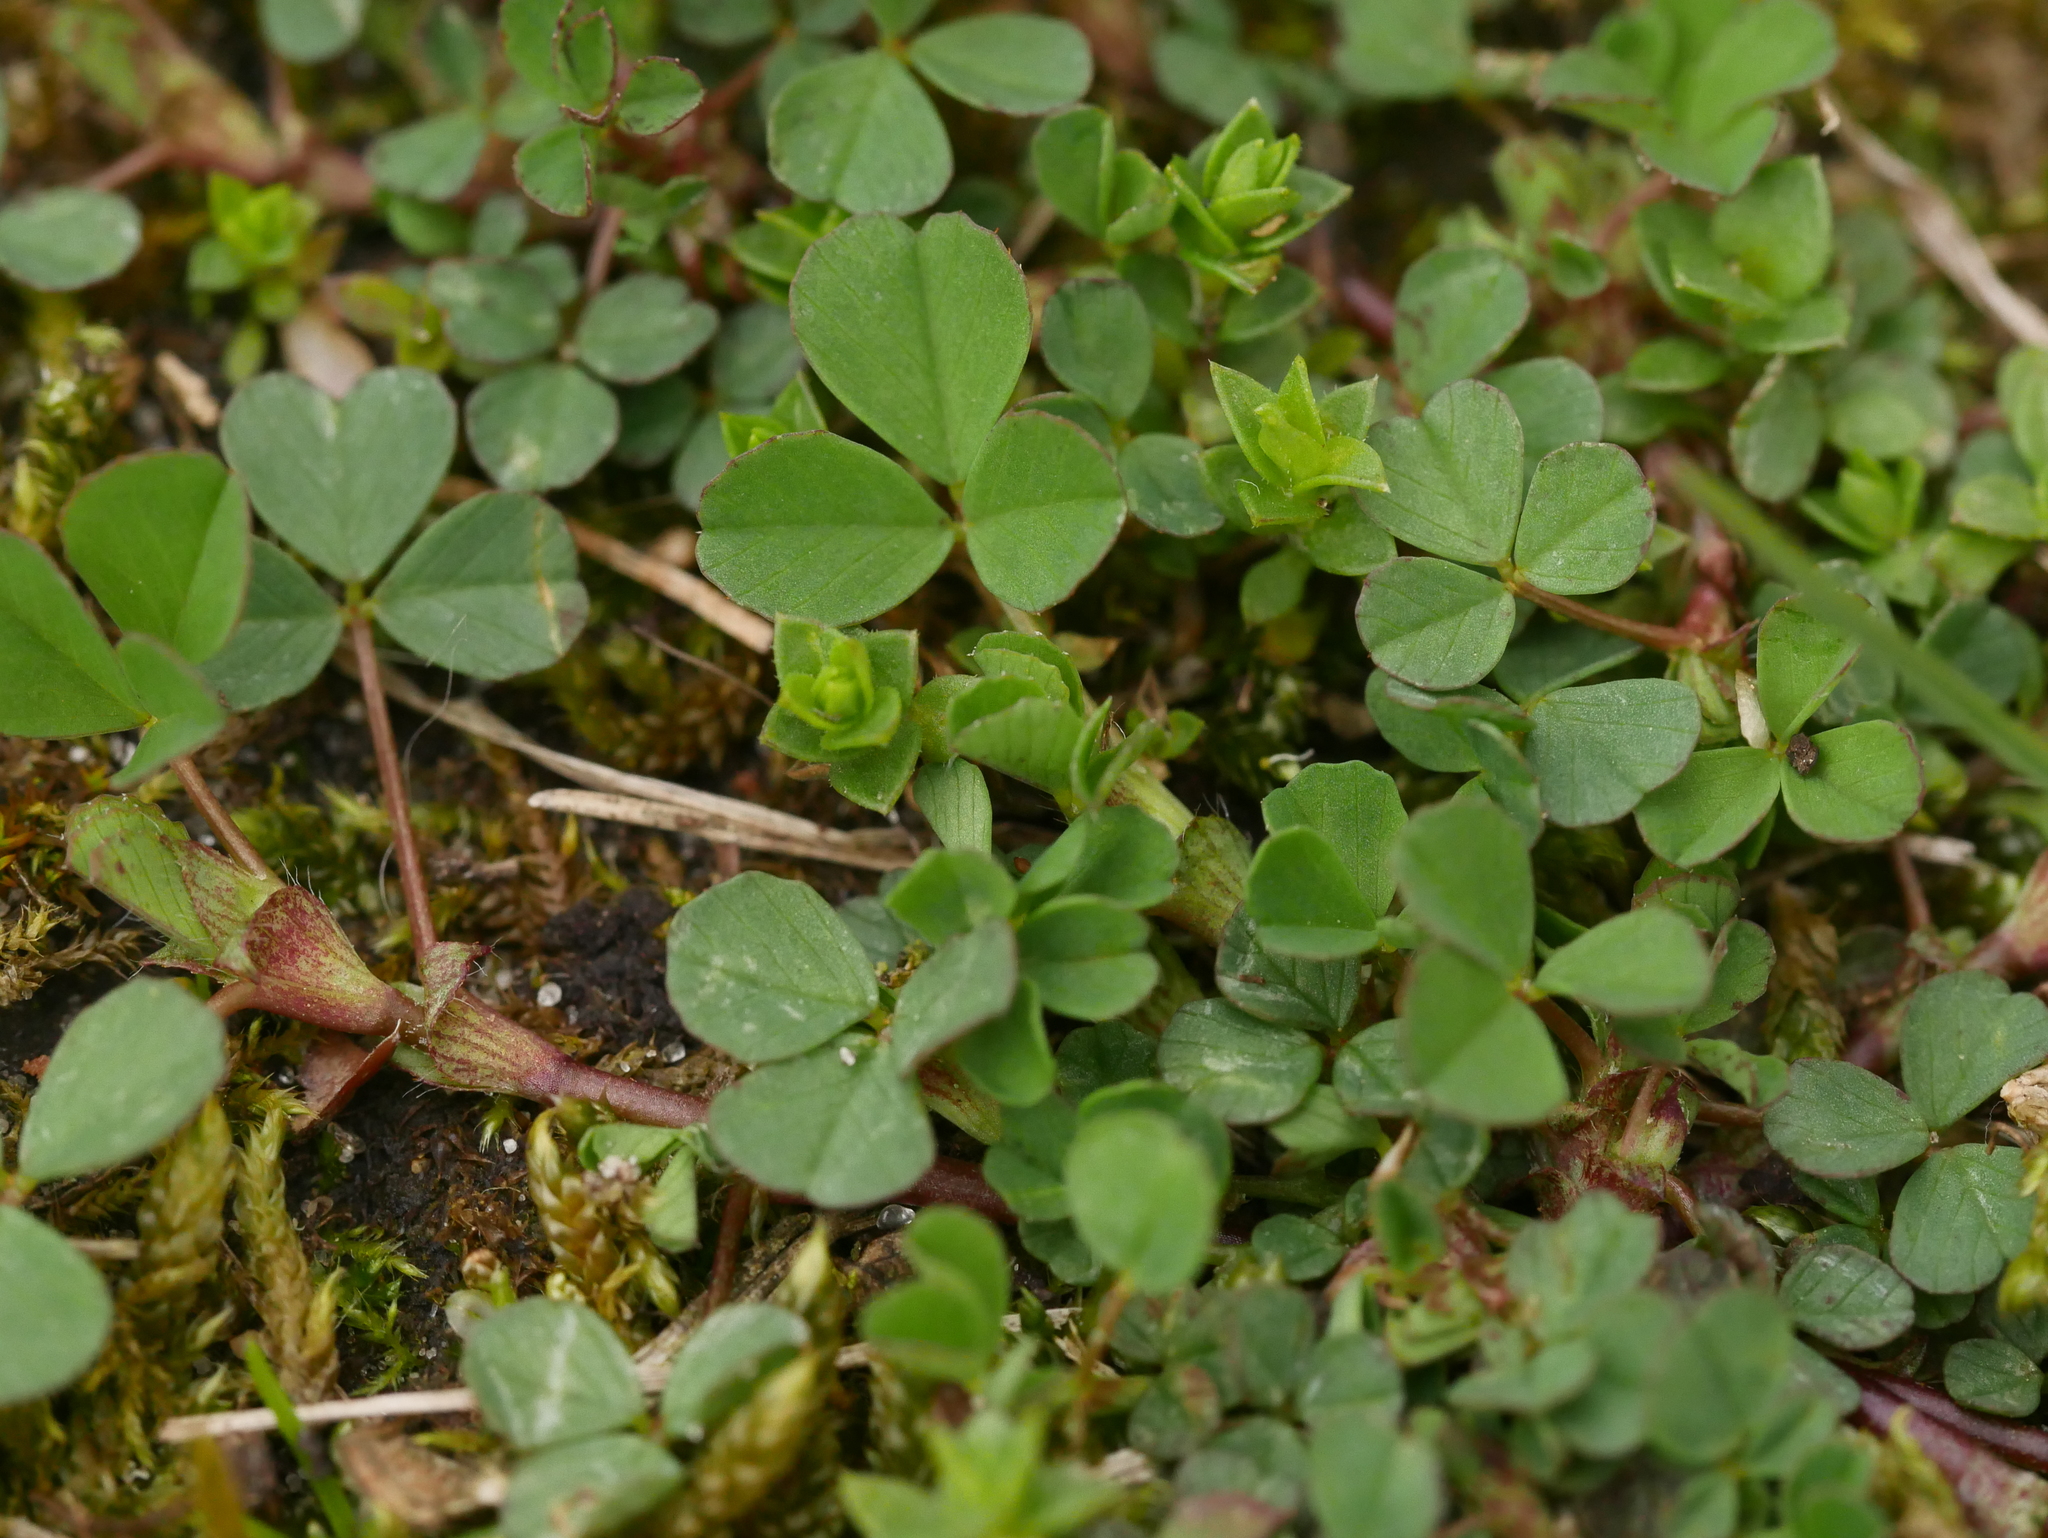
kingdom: Plantae
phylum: Tracheophyta
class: Magnoliopsida
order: Fabales
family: Fabaceae
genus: Trifolium
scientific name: Trifolium dubium
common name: Suckling clover
